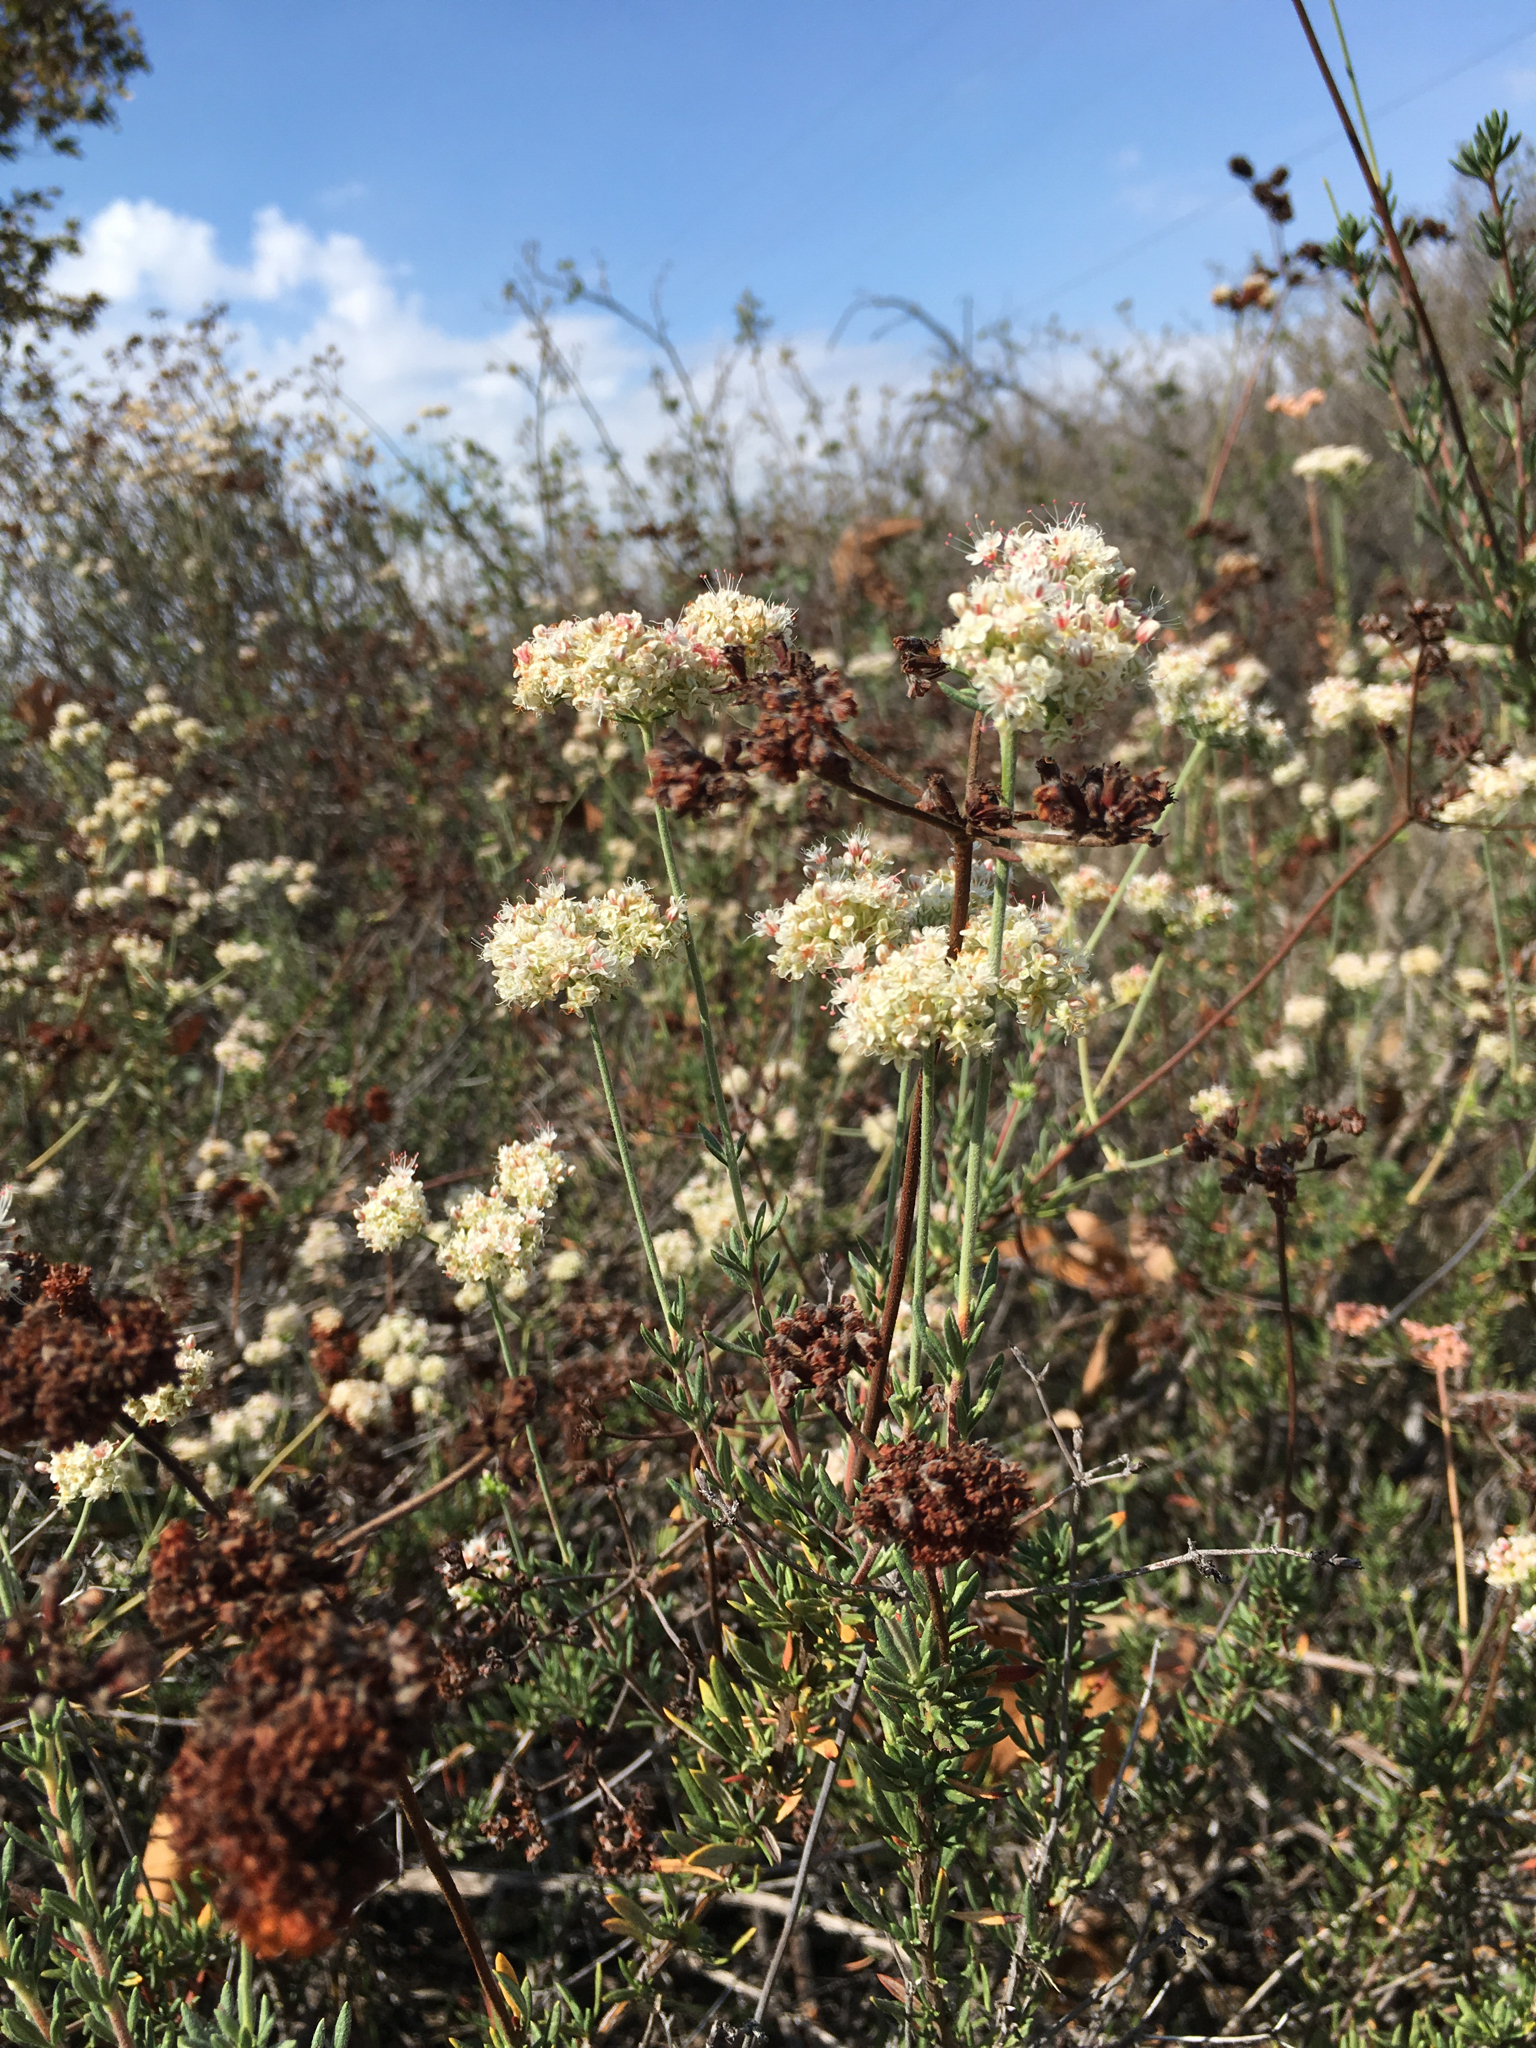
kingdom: Plantae
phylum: Tracheophyta
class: Magnoliopsida
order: Caryophyllales
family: Polygonaceae
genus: Eriogonum
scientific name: Eriogonum fasciculatum
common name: California wild buckwheat
